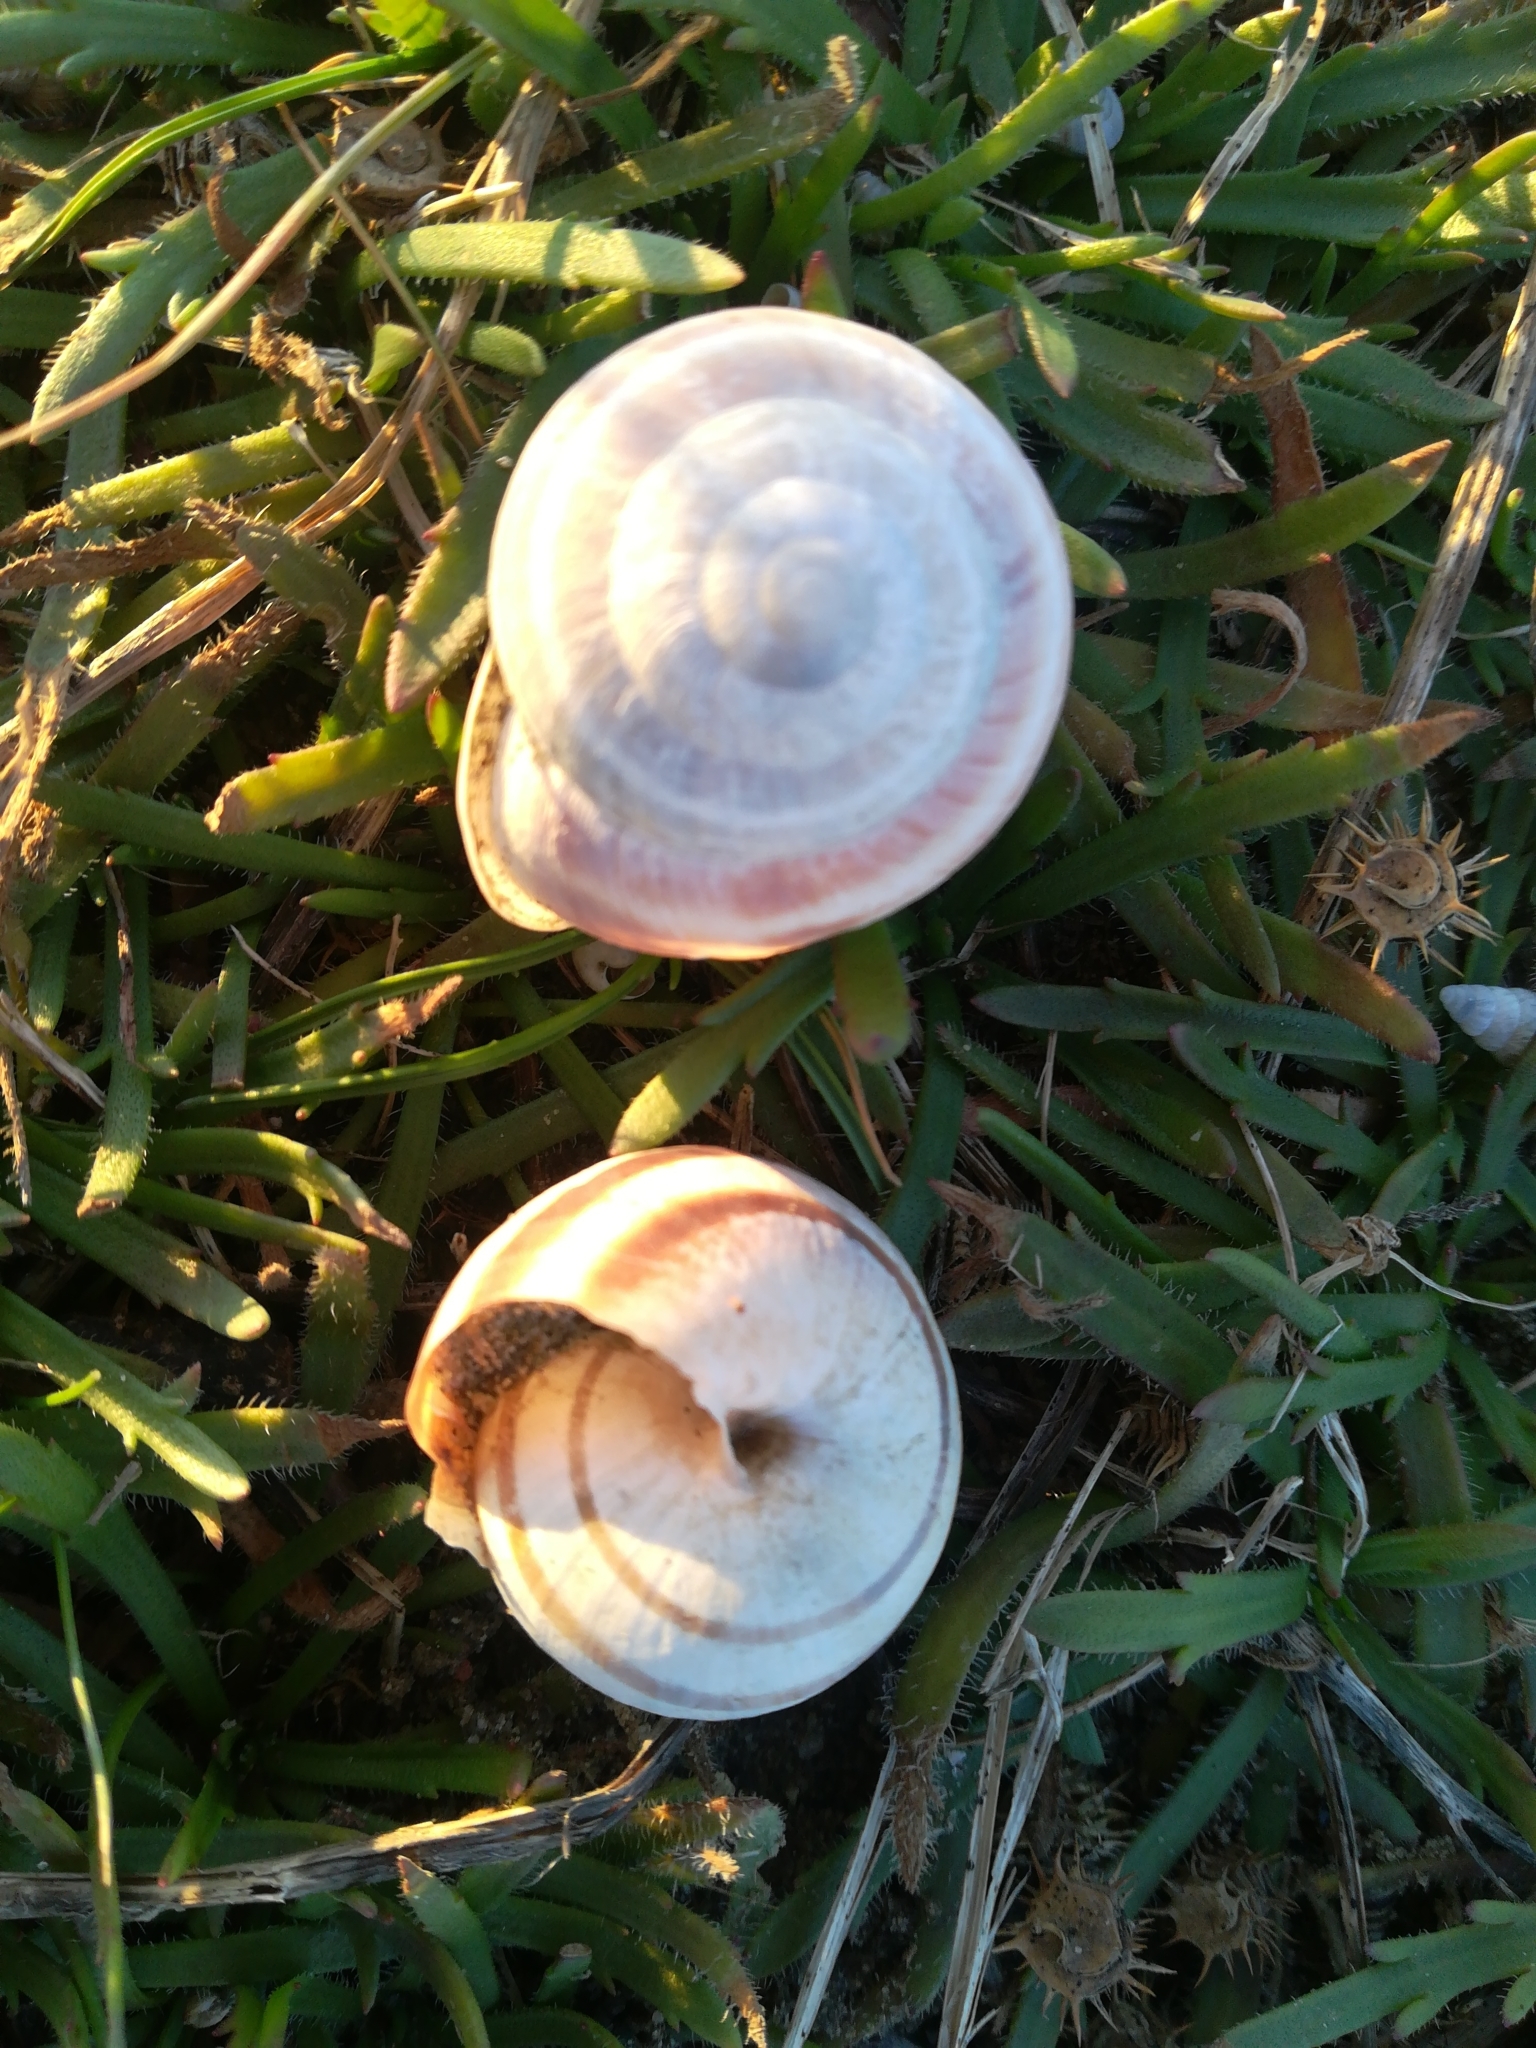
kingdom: Animalia
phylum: Mollusca
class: Gastropoda
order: Stylommatophora
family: Helicidae
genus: Eobania
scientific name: Eobania vermiculata
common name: Chocolateband snail
